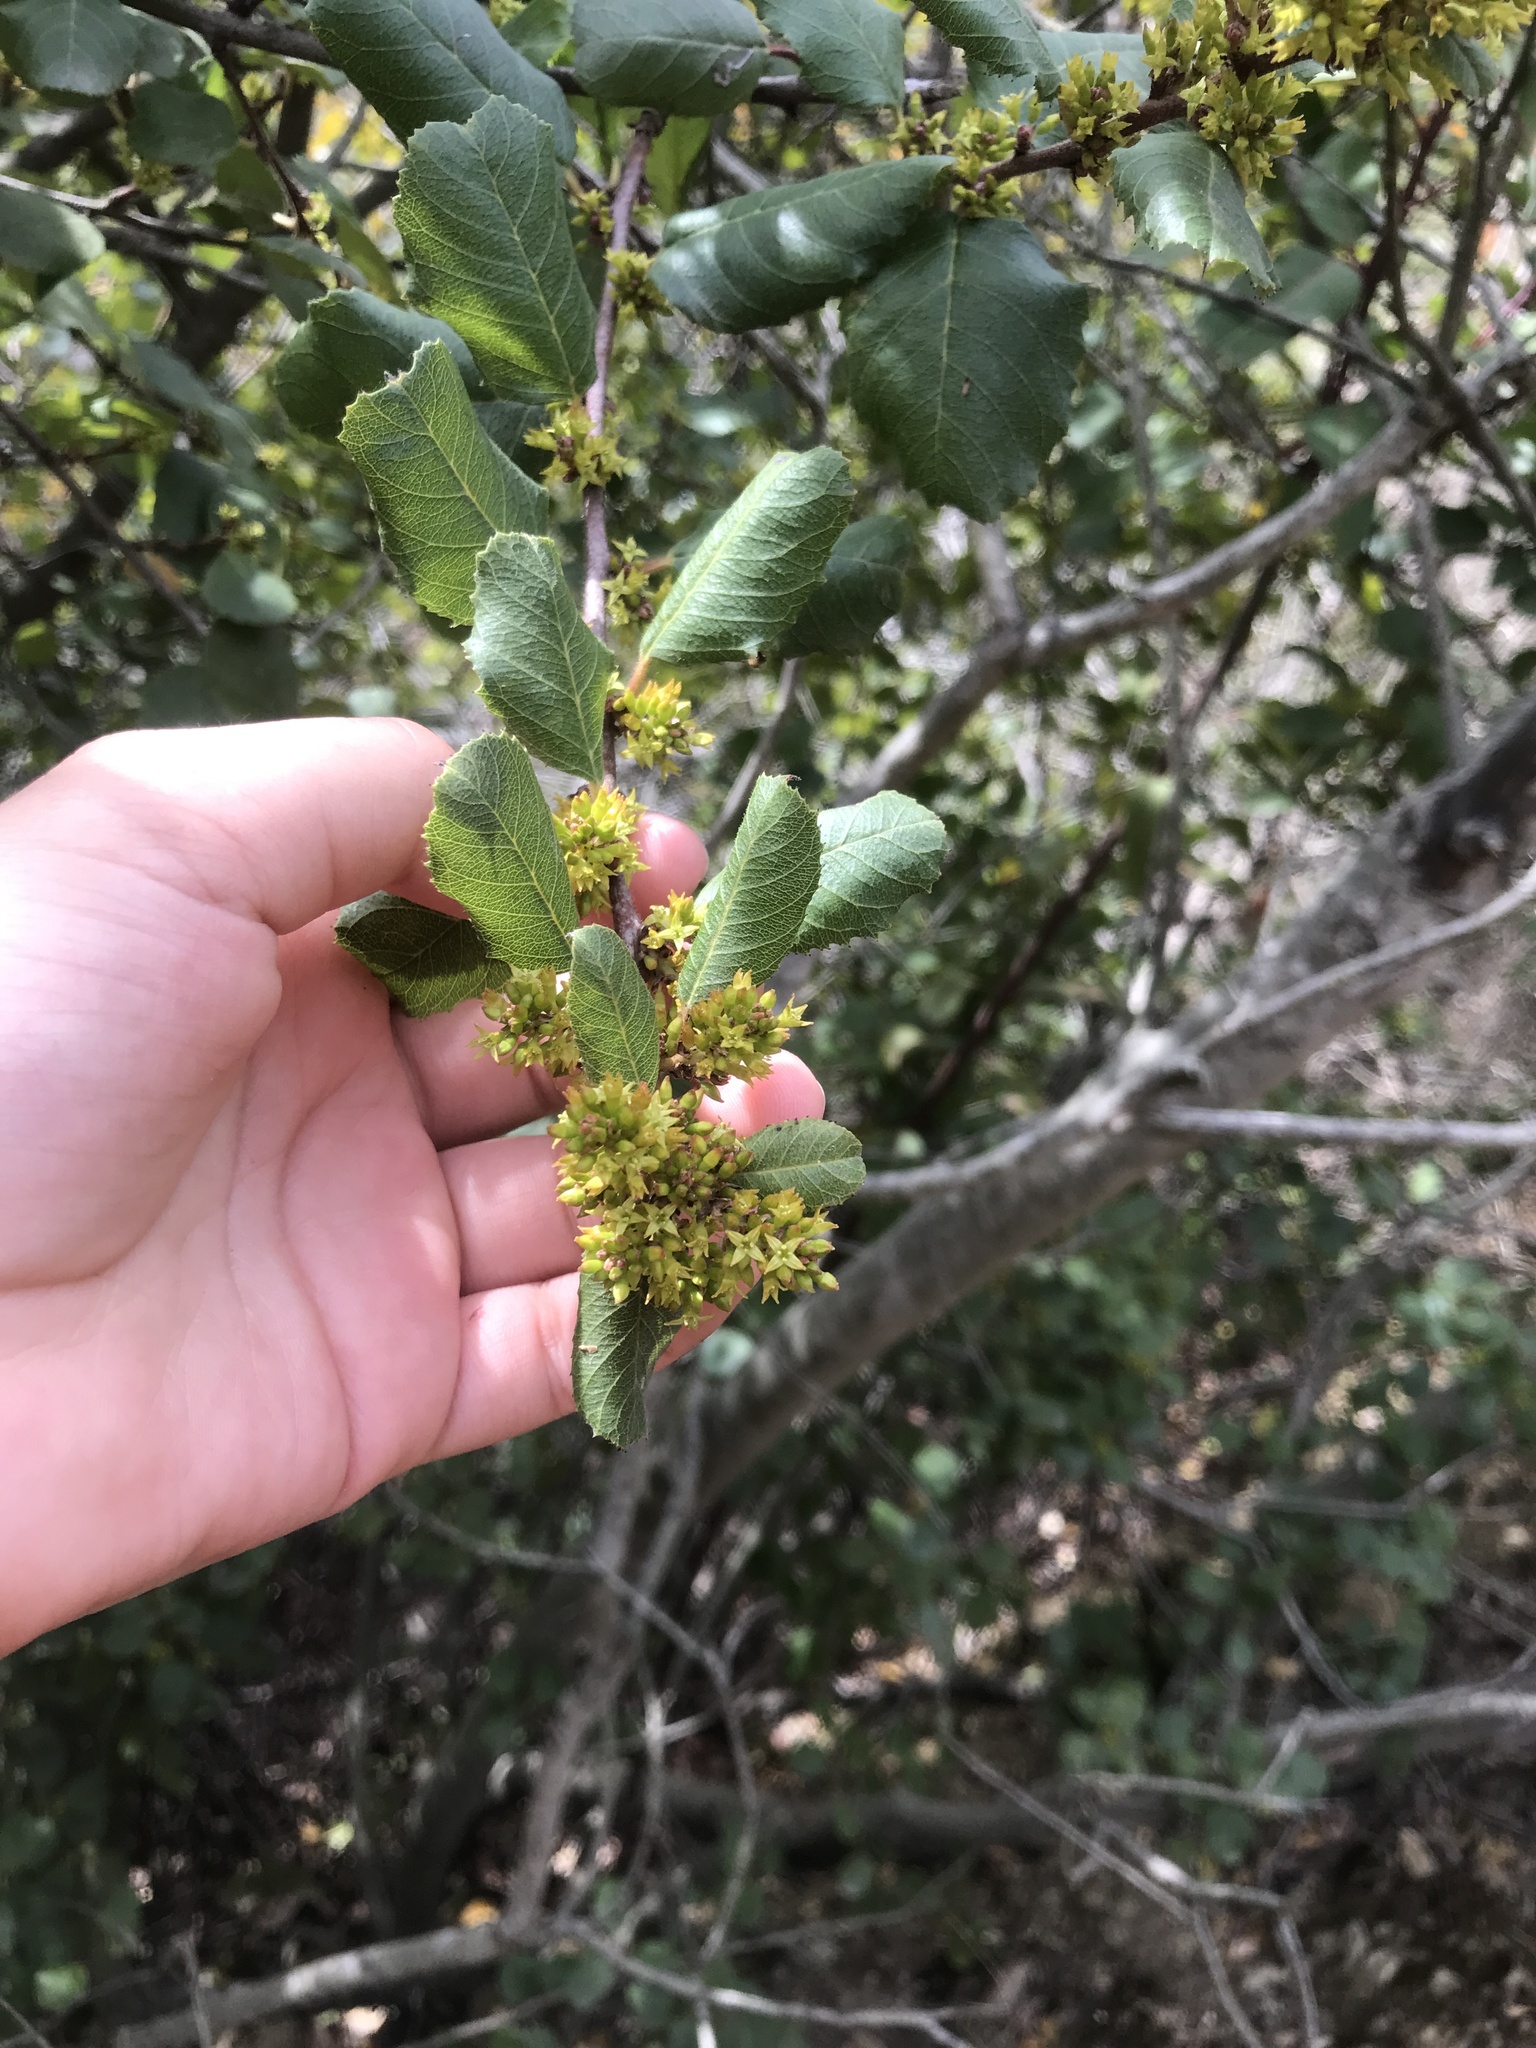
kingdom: Plantae
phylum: Tracheophyta
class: Magnoliopsida
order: Rosales
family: Rhamnaceae
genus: Endotropis
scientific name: Endotropis crocea
